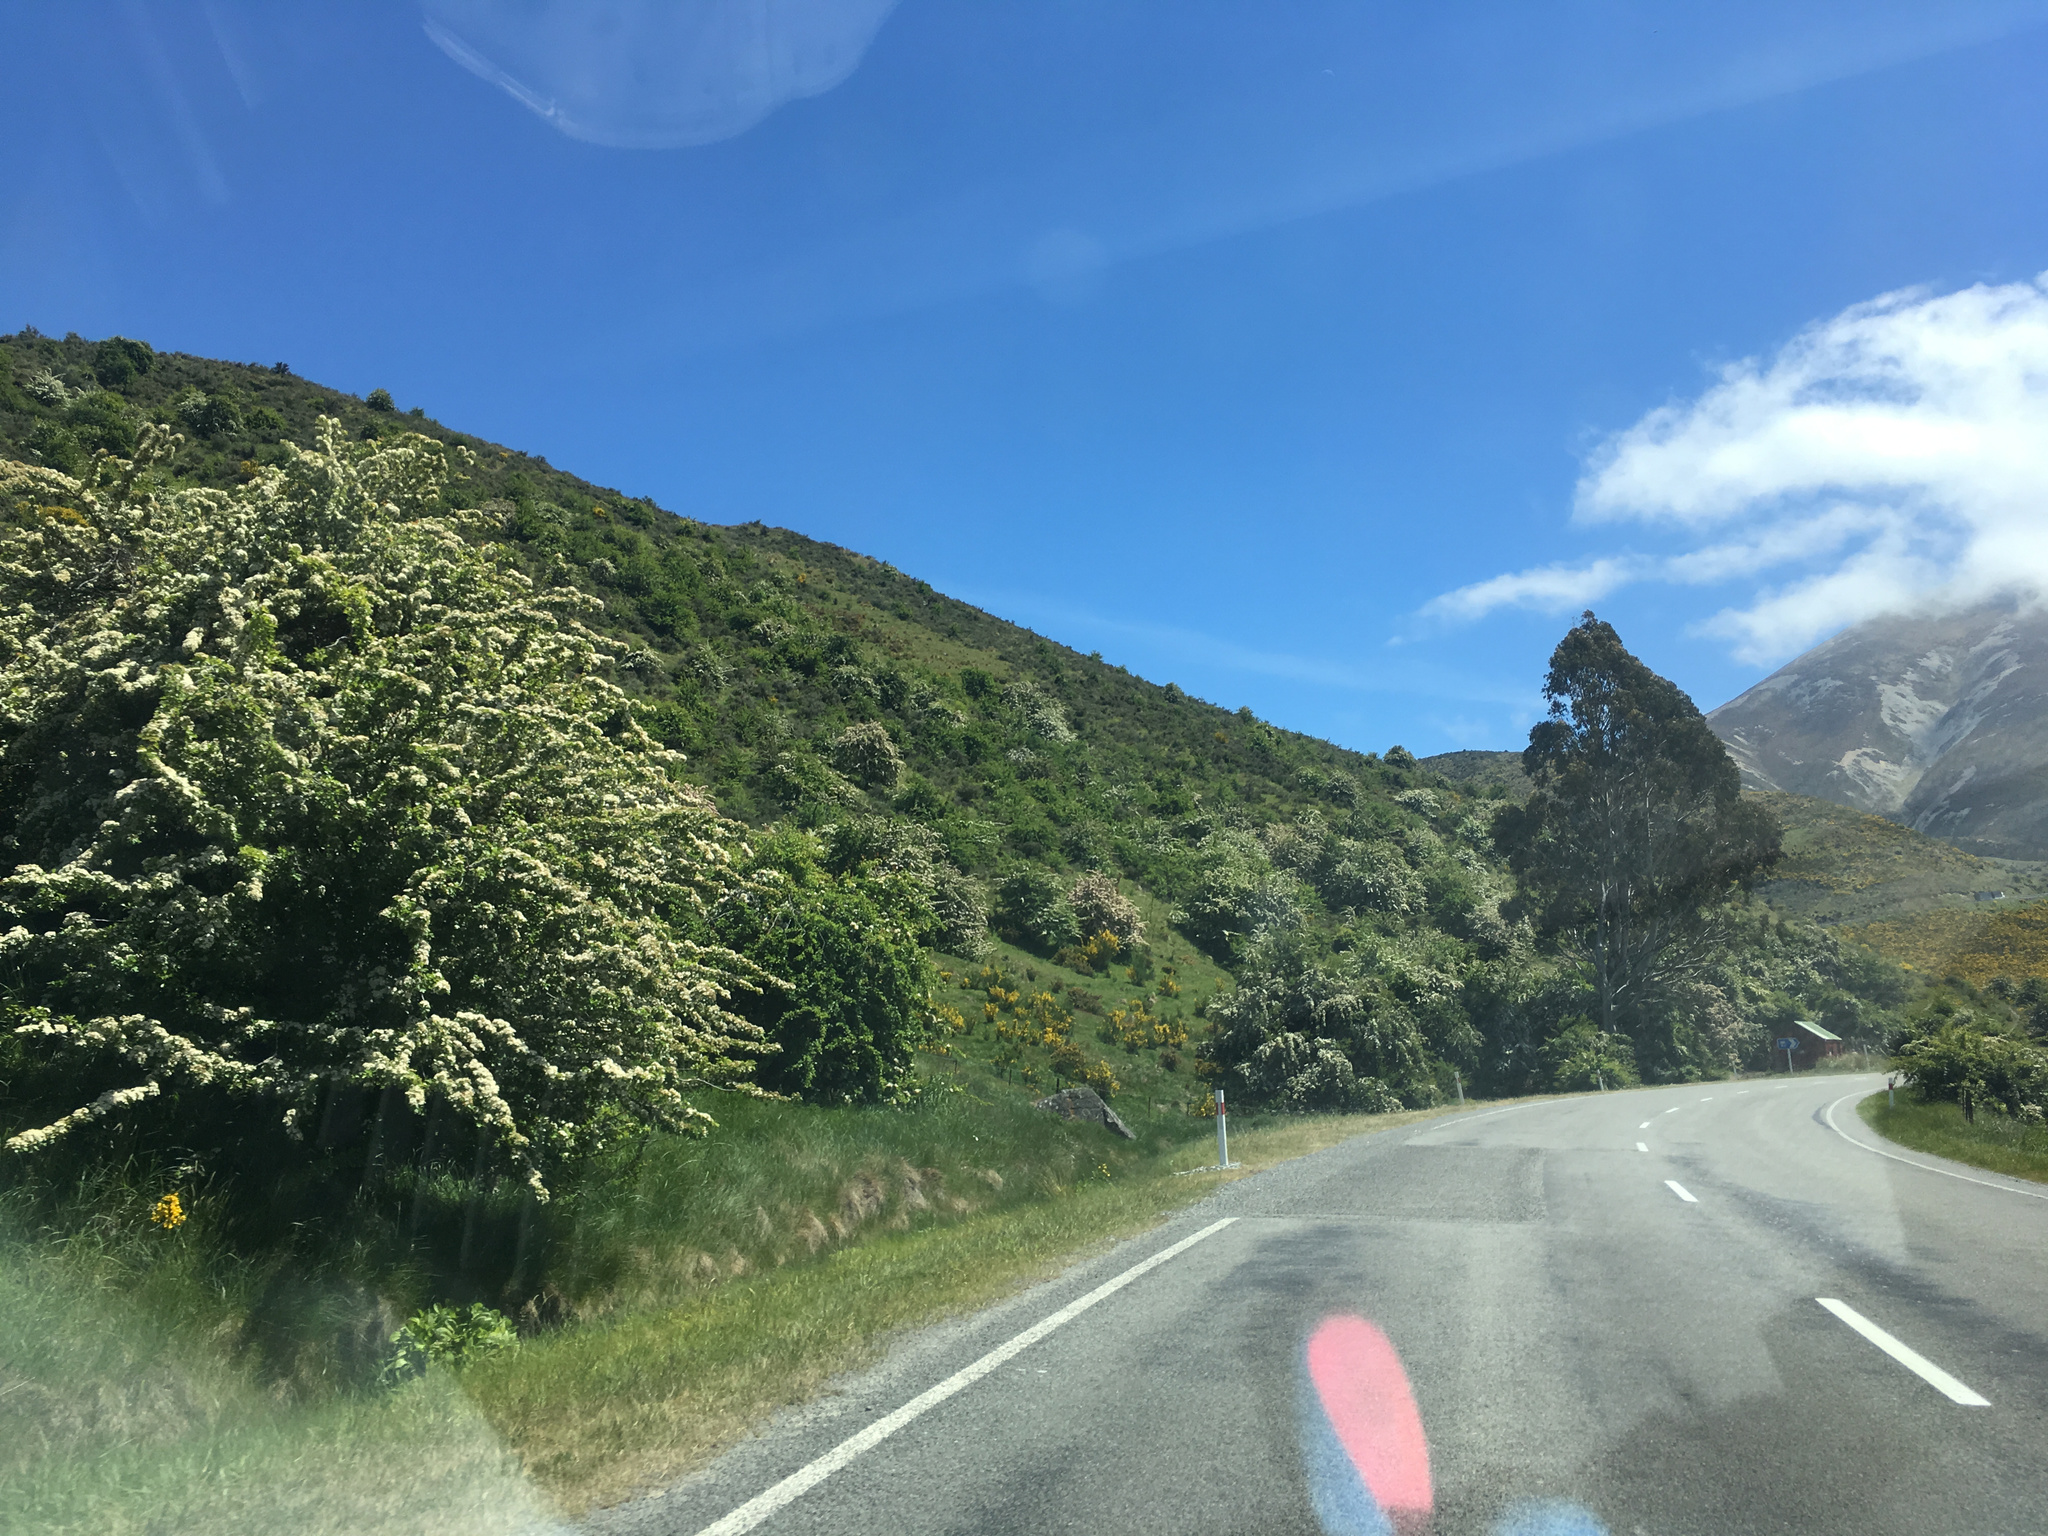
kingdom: Plantae
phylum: Tracheophyta
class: Magnoliopsida
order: Rosales
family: Rosaceae
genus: Crataegus
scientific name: Crataegus monogyna
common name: Hawthorn
